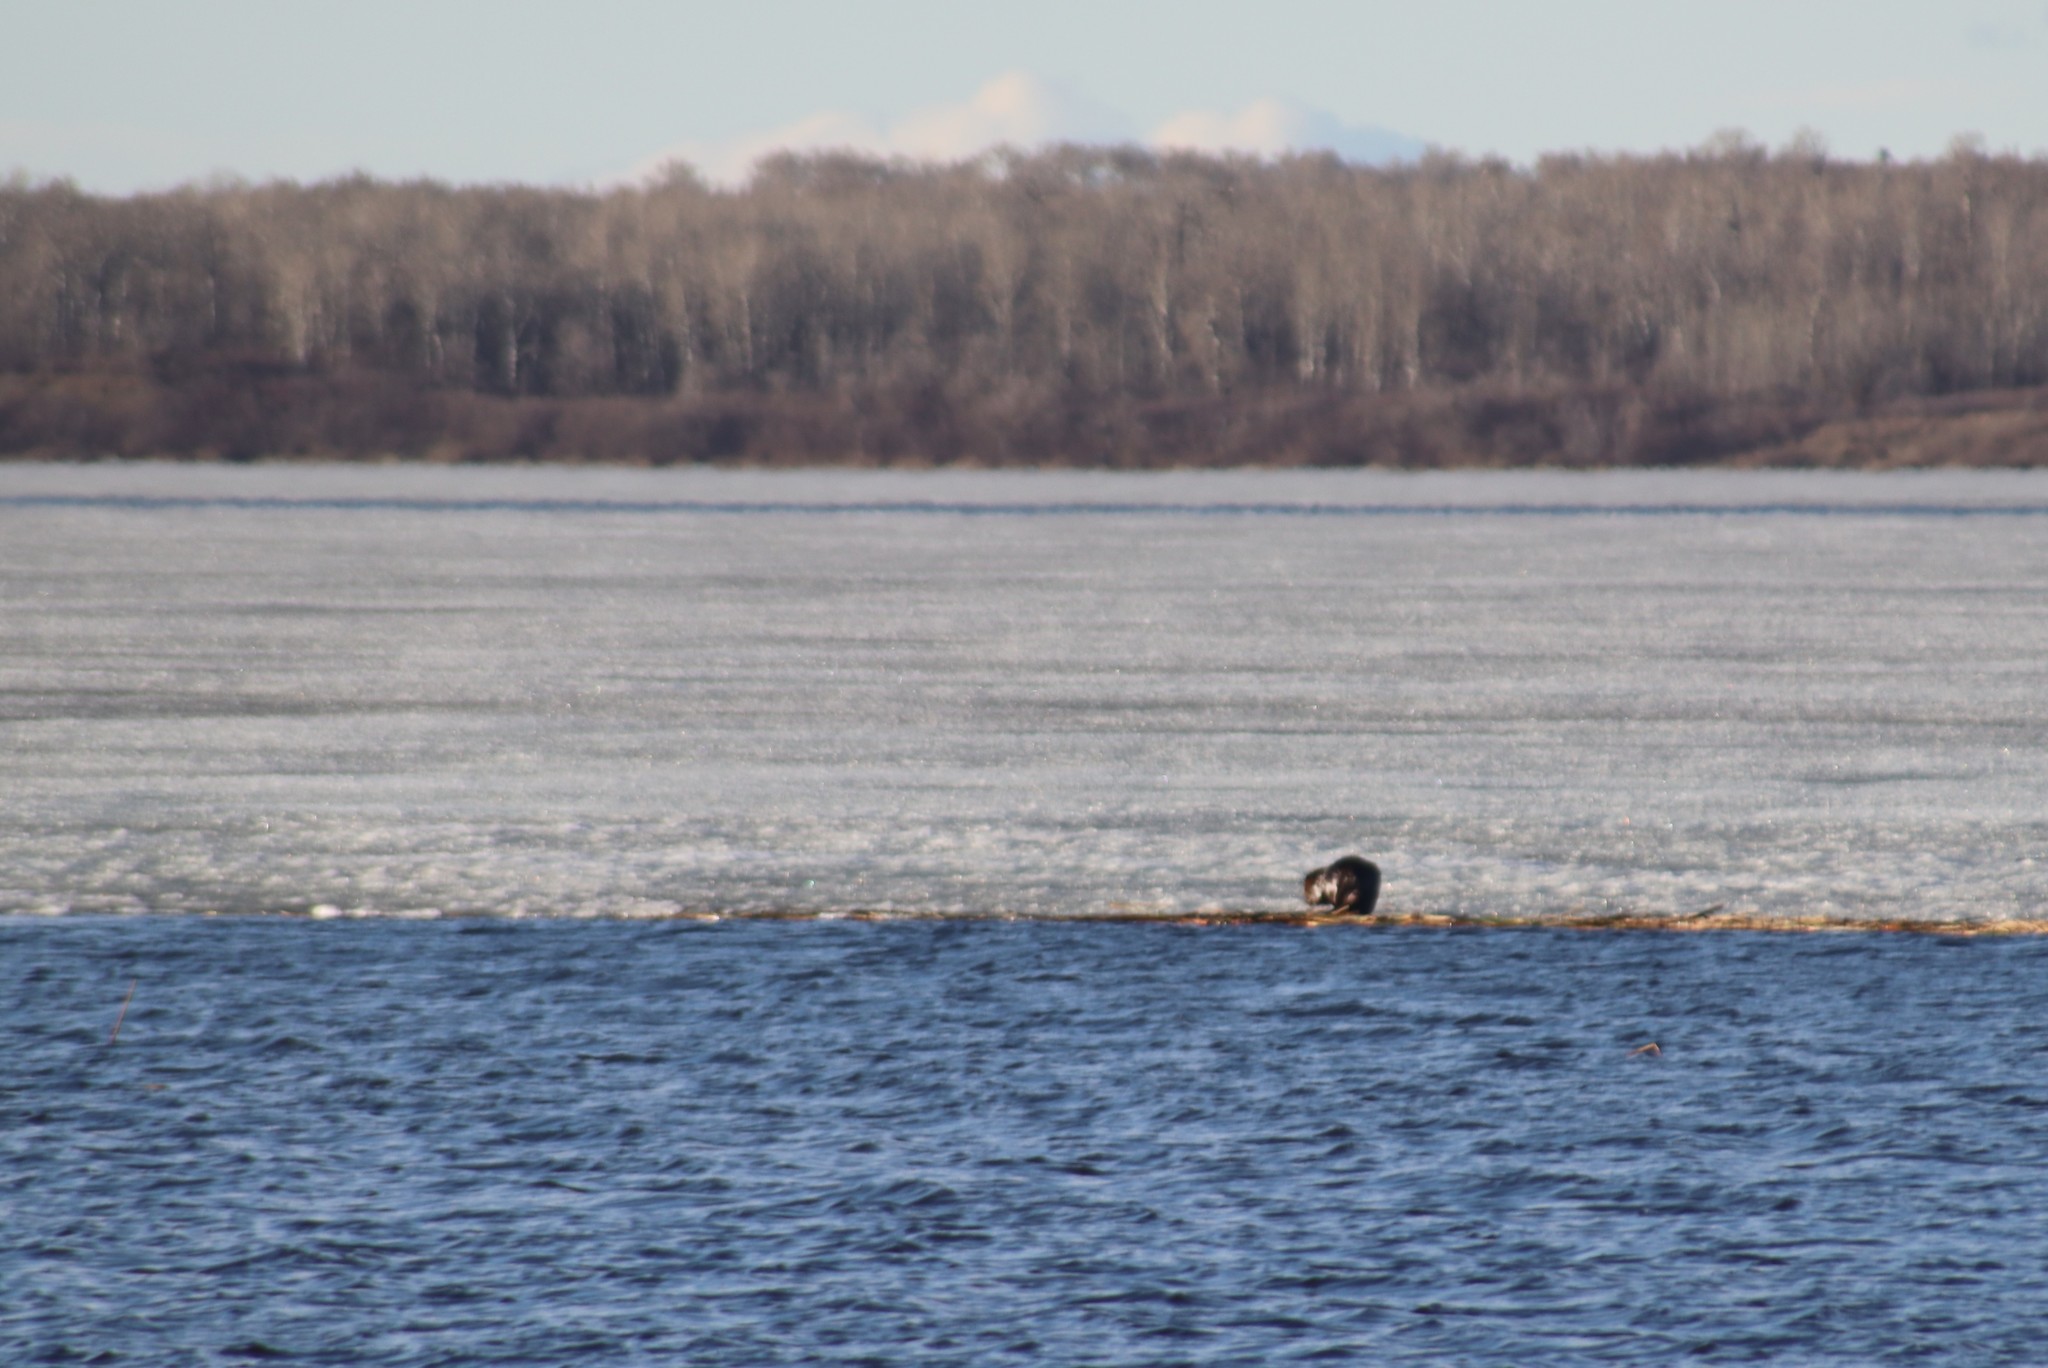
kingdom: Animalia
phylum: Chordata
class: Mammalia
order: Rodentia
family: Castoridae
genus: Castor
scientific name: Castor canadensis
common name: American beaver
